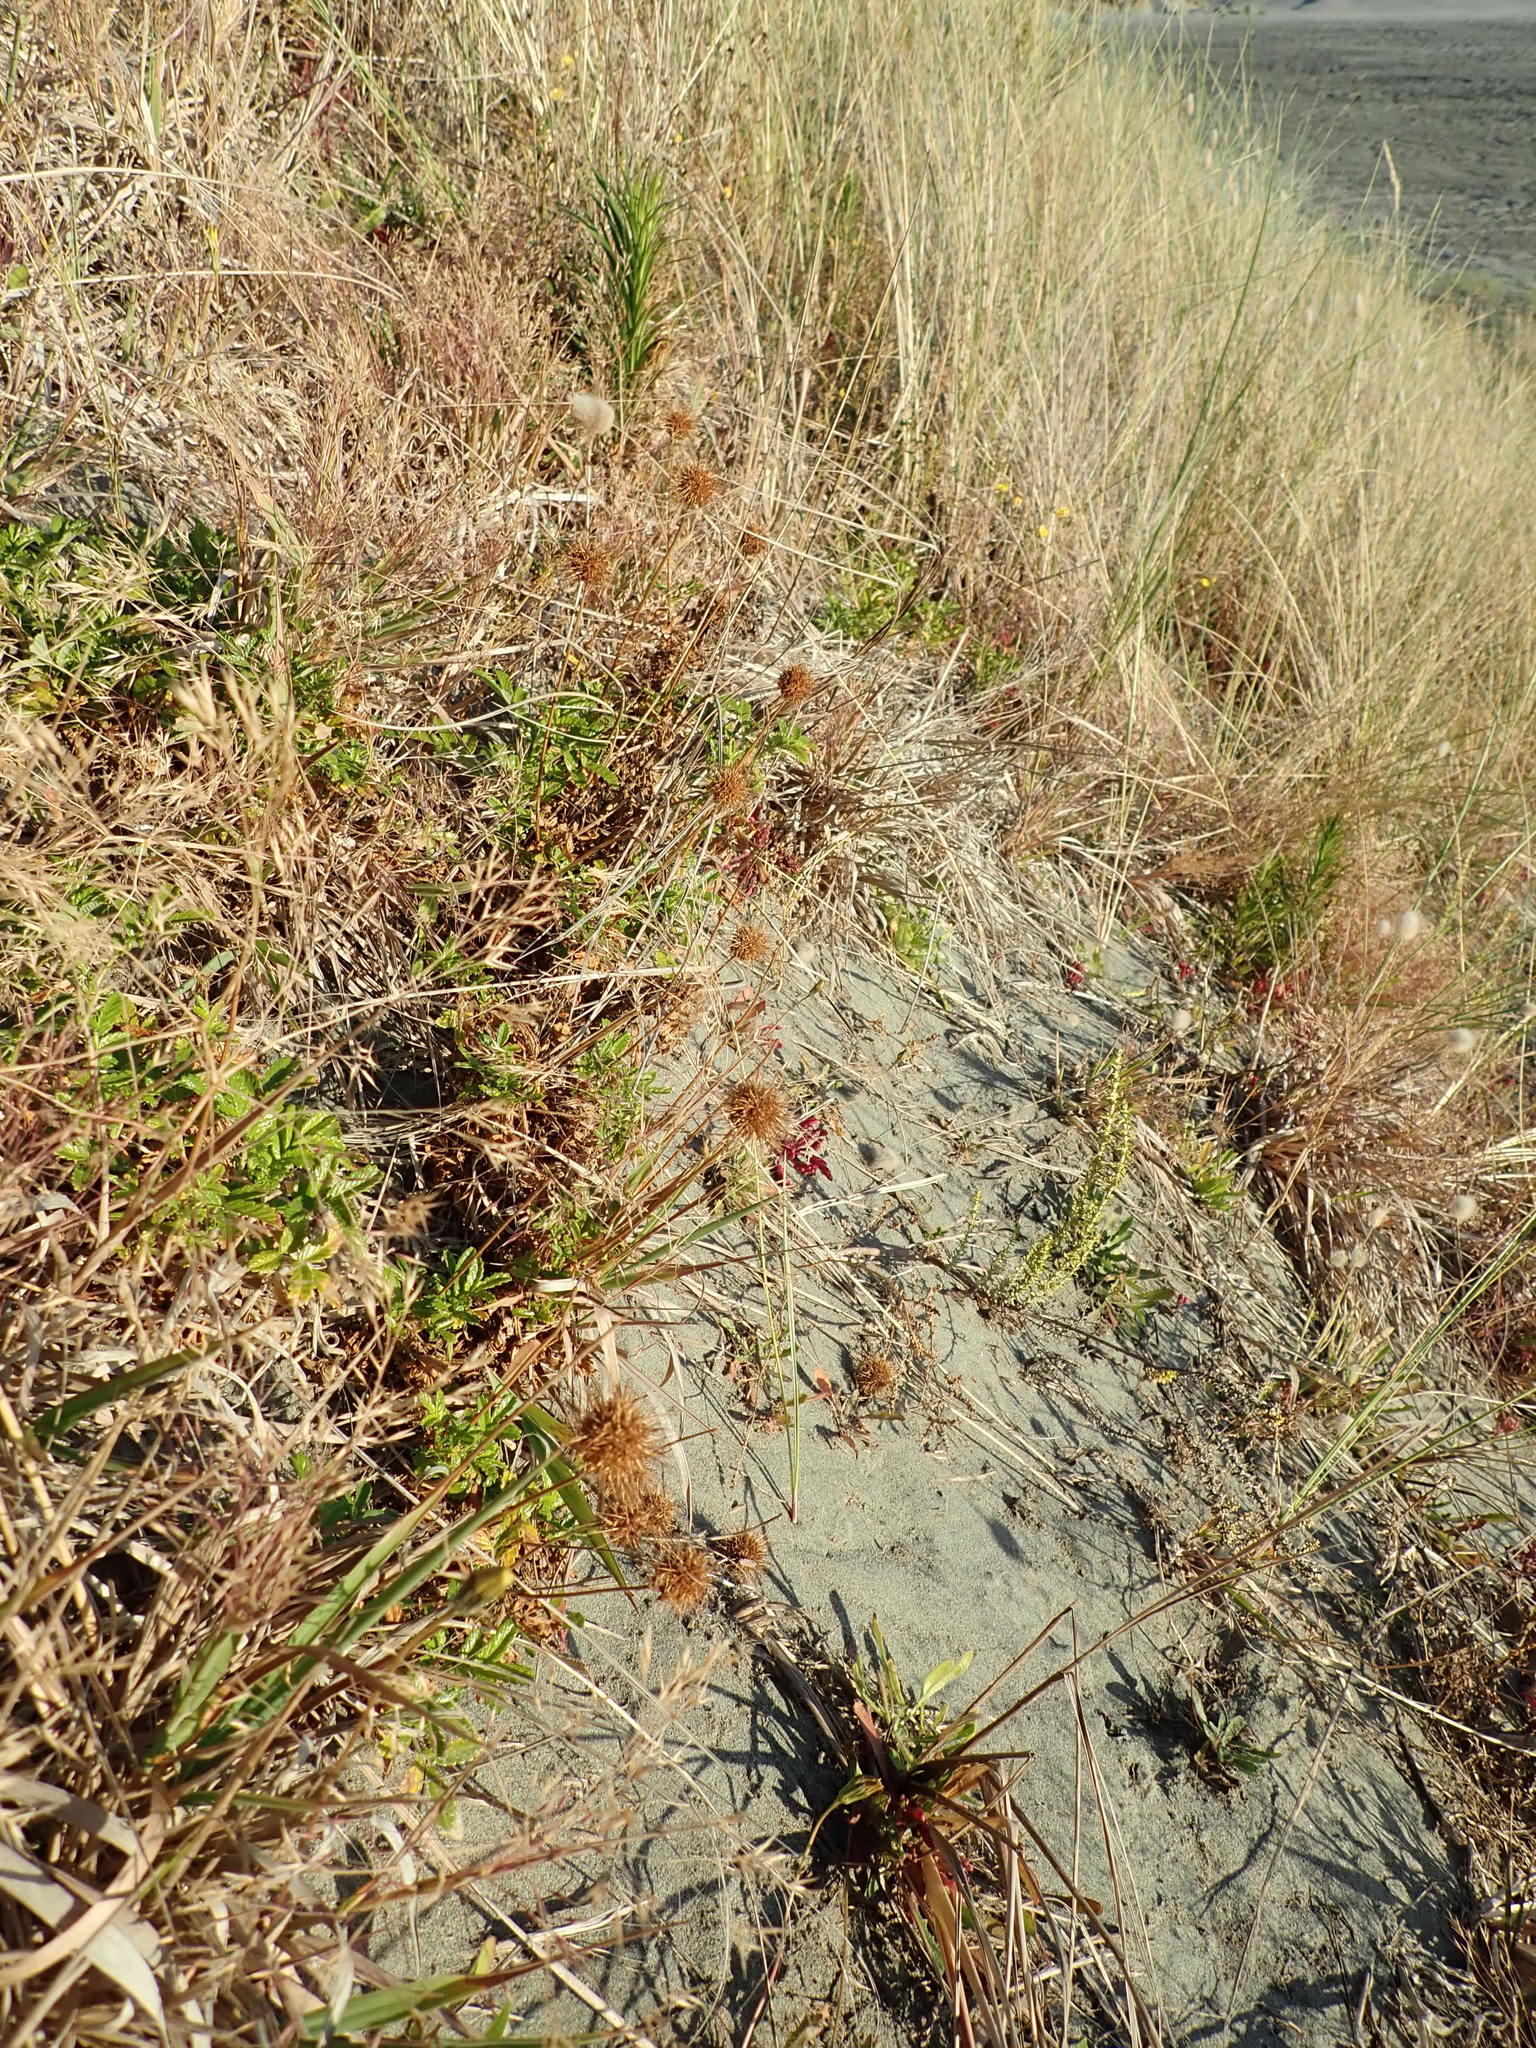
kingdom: Plantae
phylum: Tracheophyta
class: Magnoliopsida
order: Rosales
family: Rosaceae
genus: Acaena
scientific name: Acaena pallida
